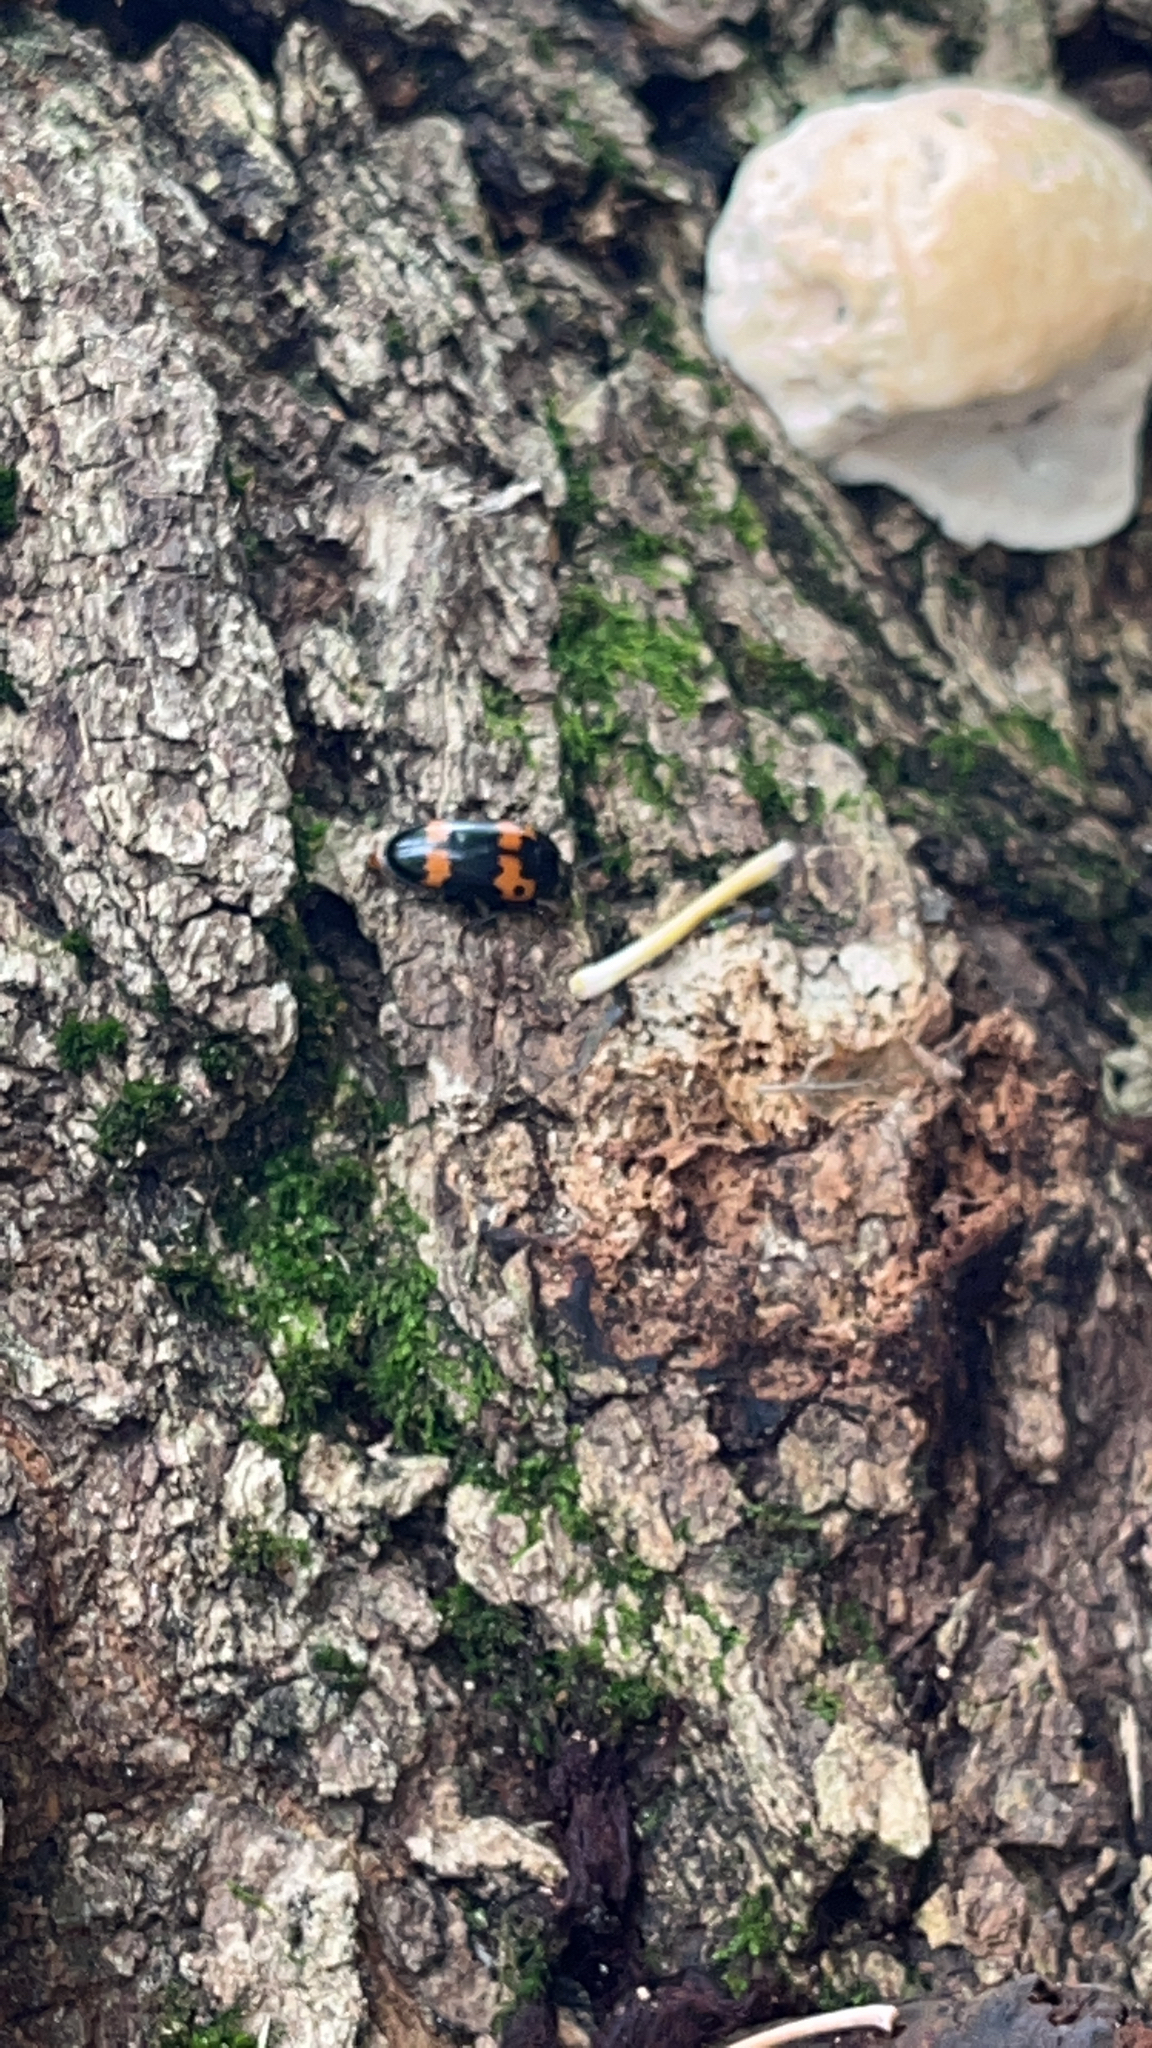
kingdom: Animalia
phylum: Arthropoda
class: Insecta
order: Coleoptera
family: Erotylidae
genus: Megalodacne
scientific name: Megalodacne fasciata
